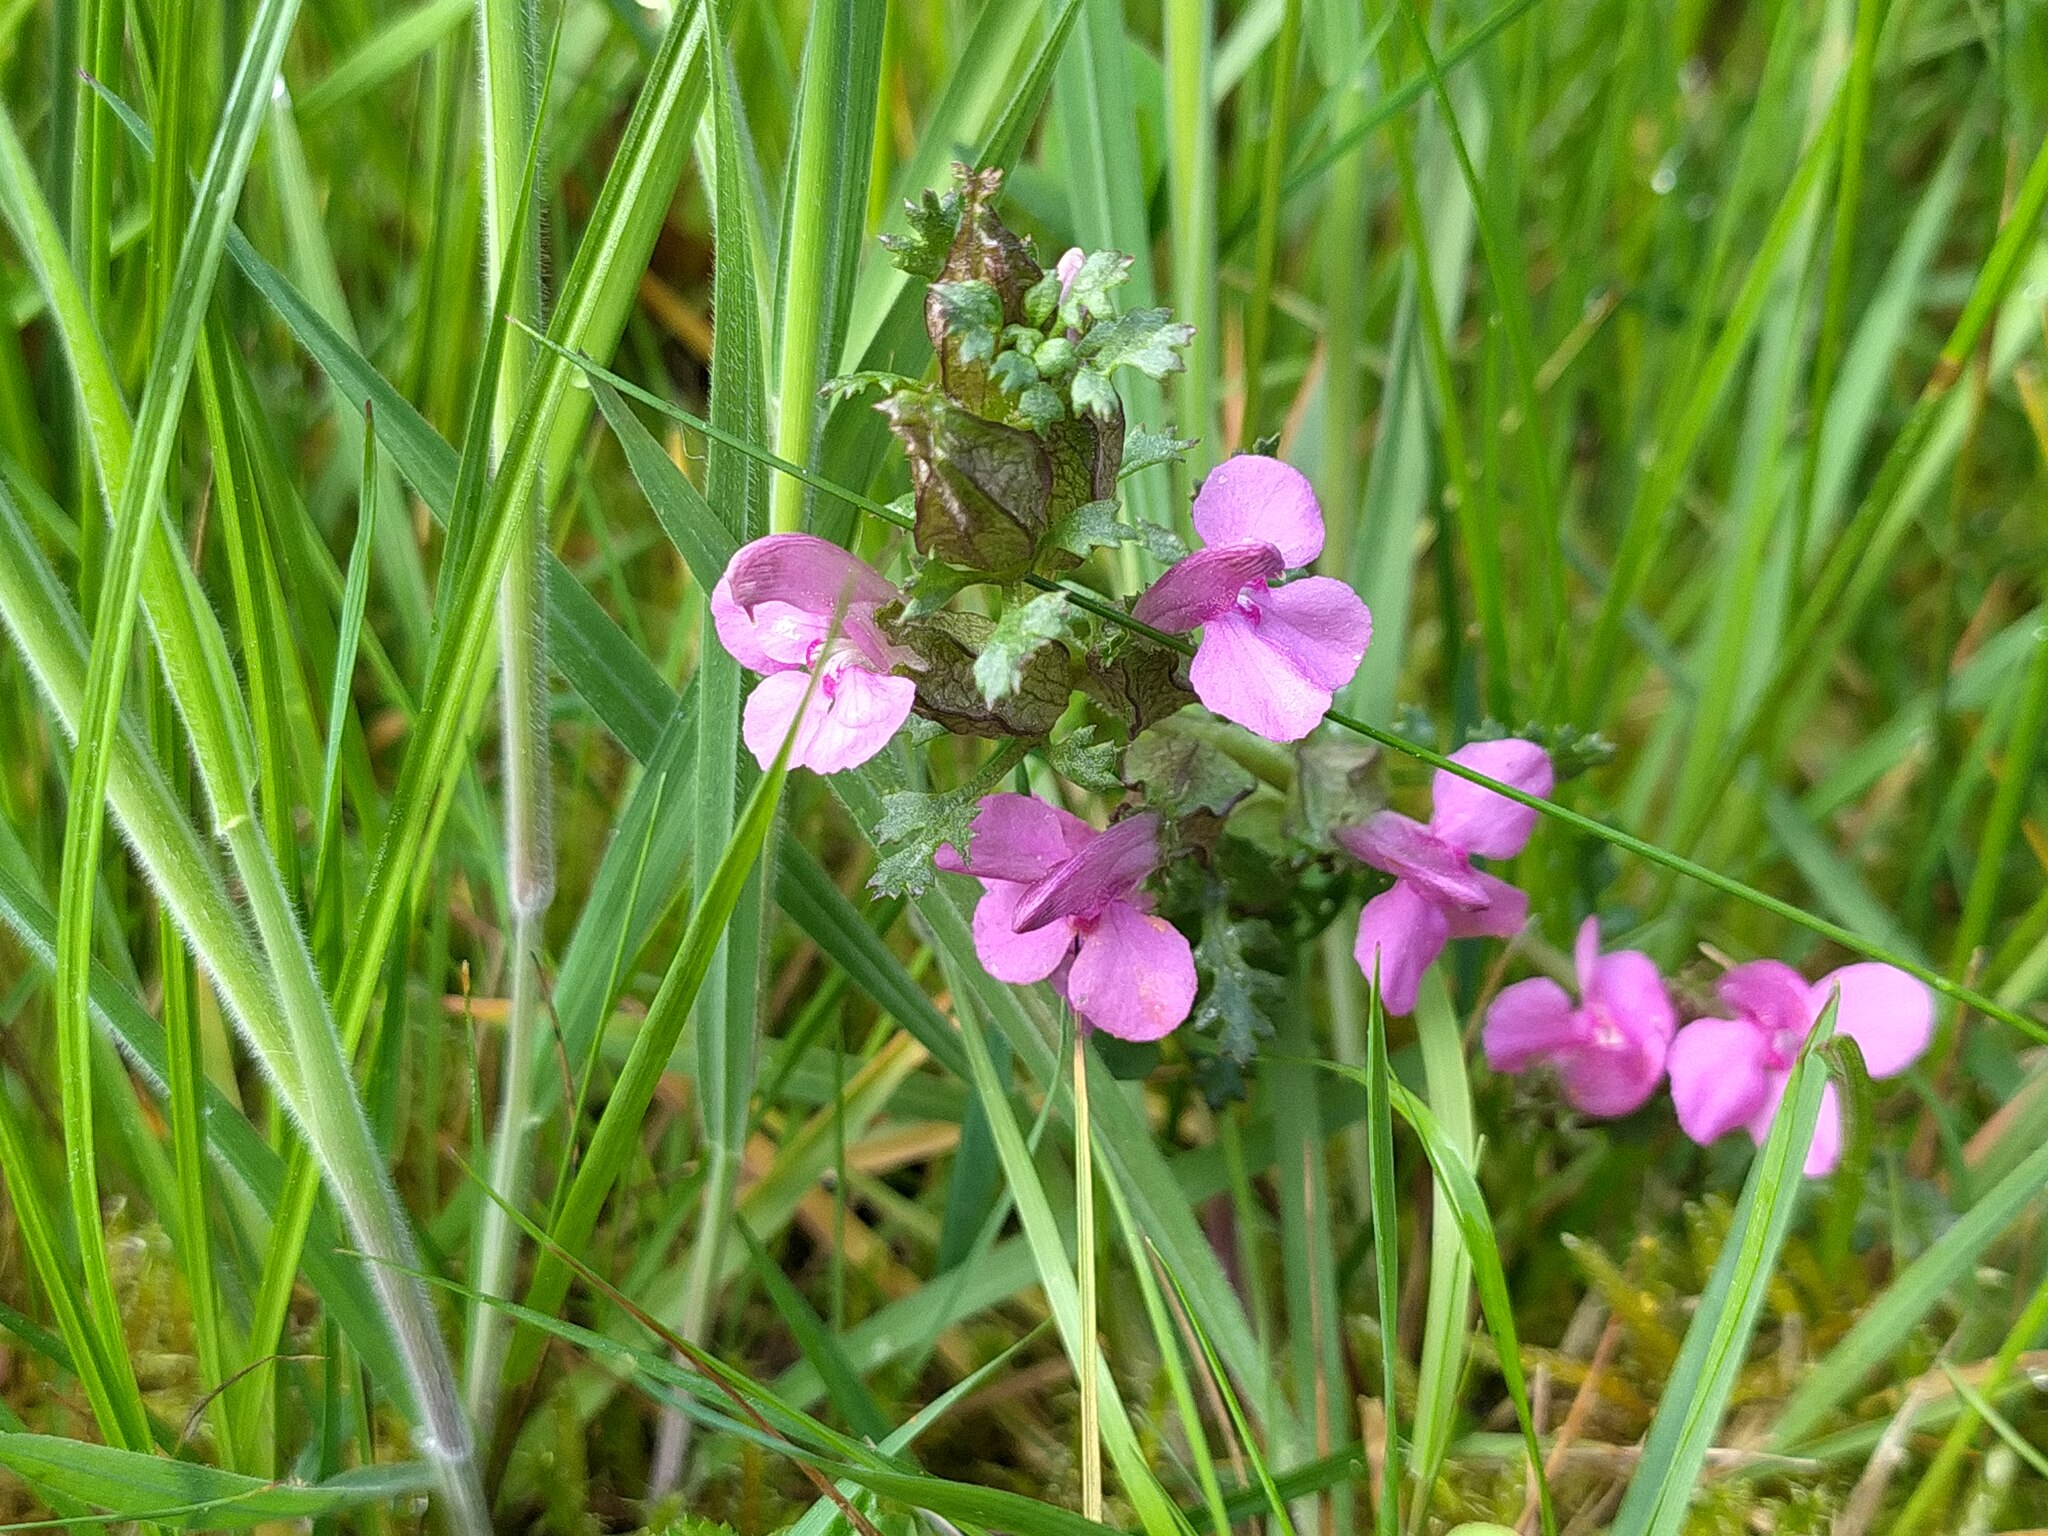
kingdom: Plantae
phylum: Tracheophyta
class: Magnoliopsida
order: Lamiales
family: Orobanchaceae
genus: Pedicularis
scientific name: Pedicularis sylvatica
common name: Lousewort
